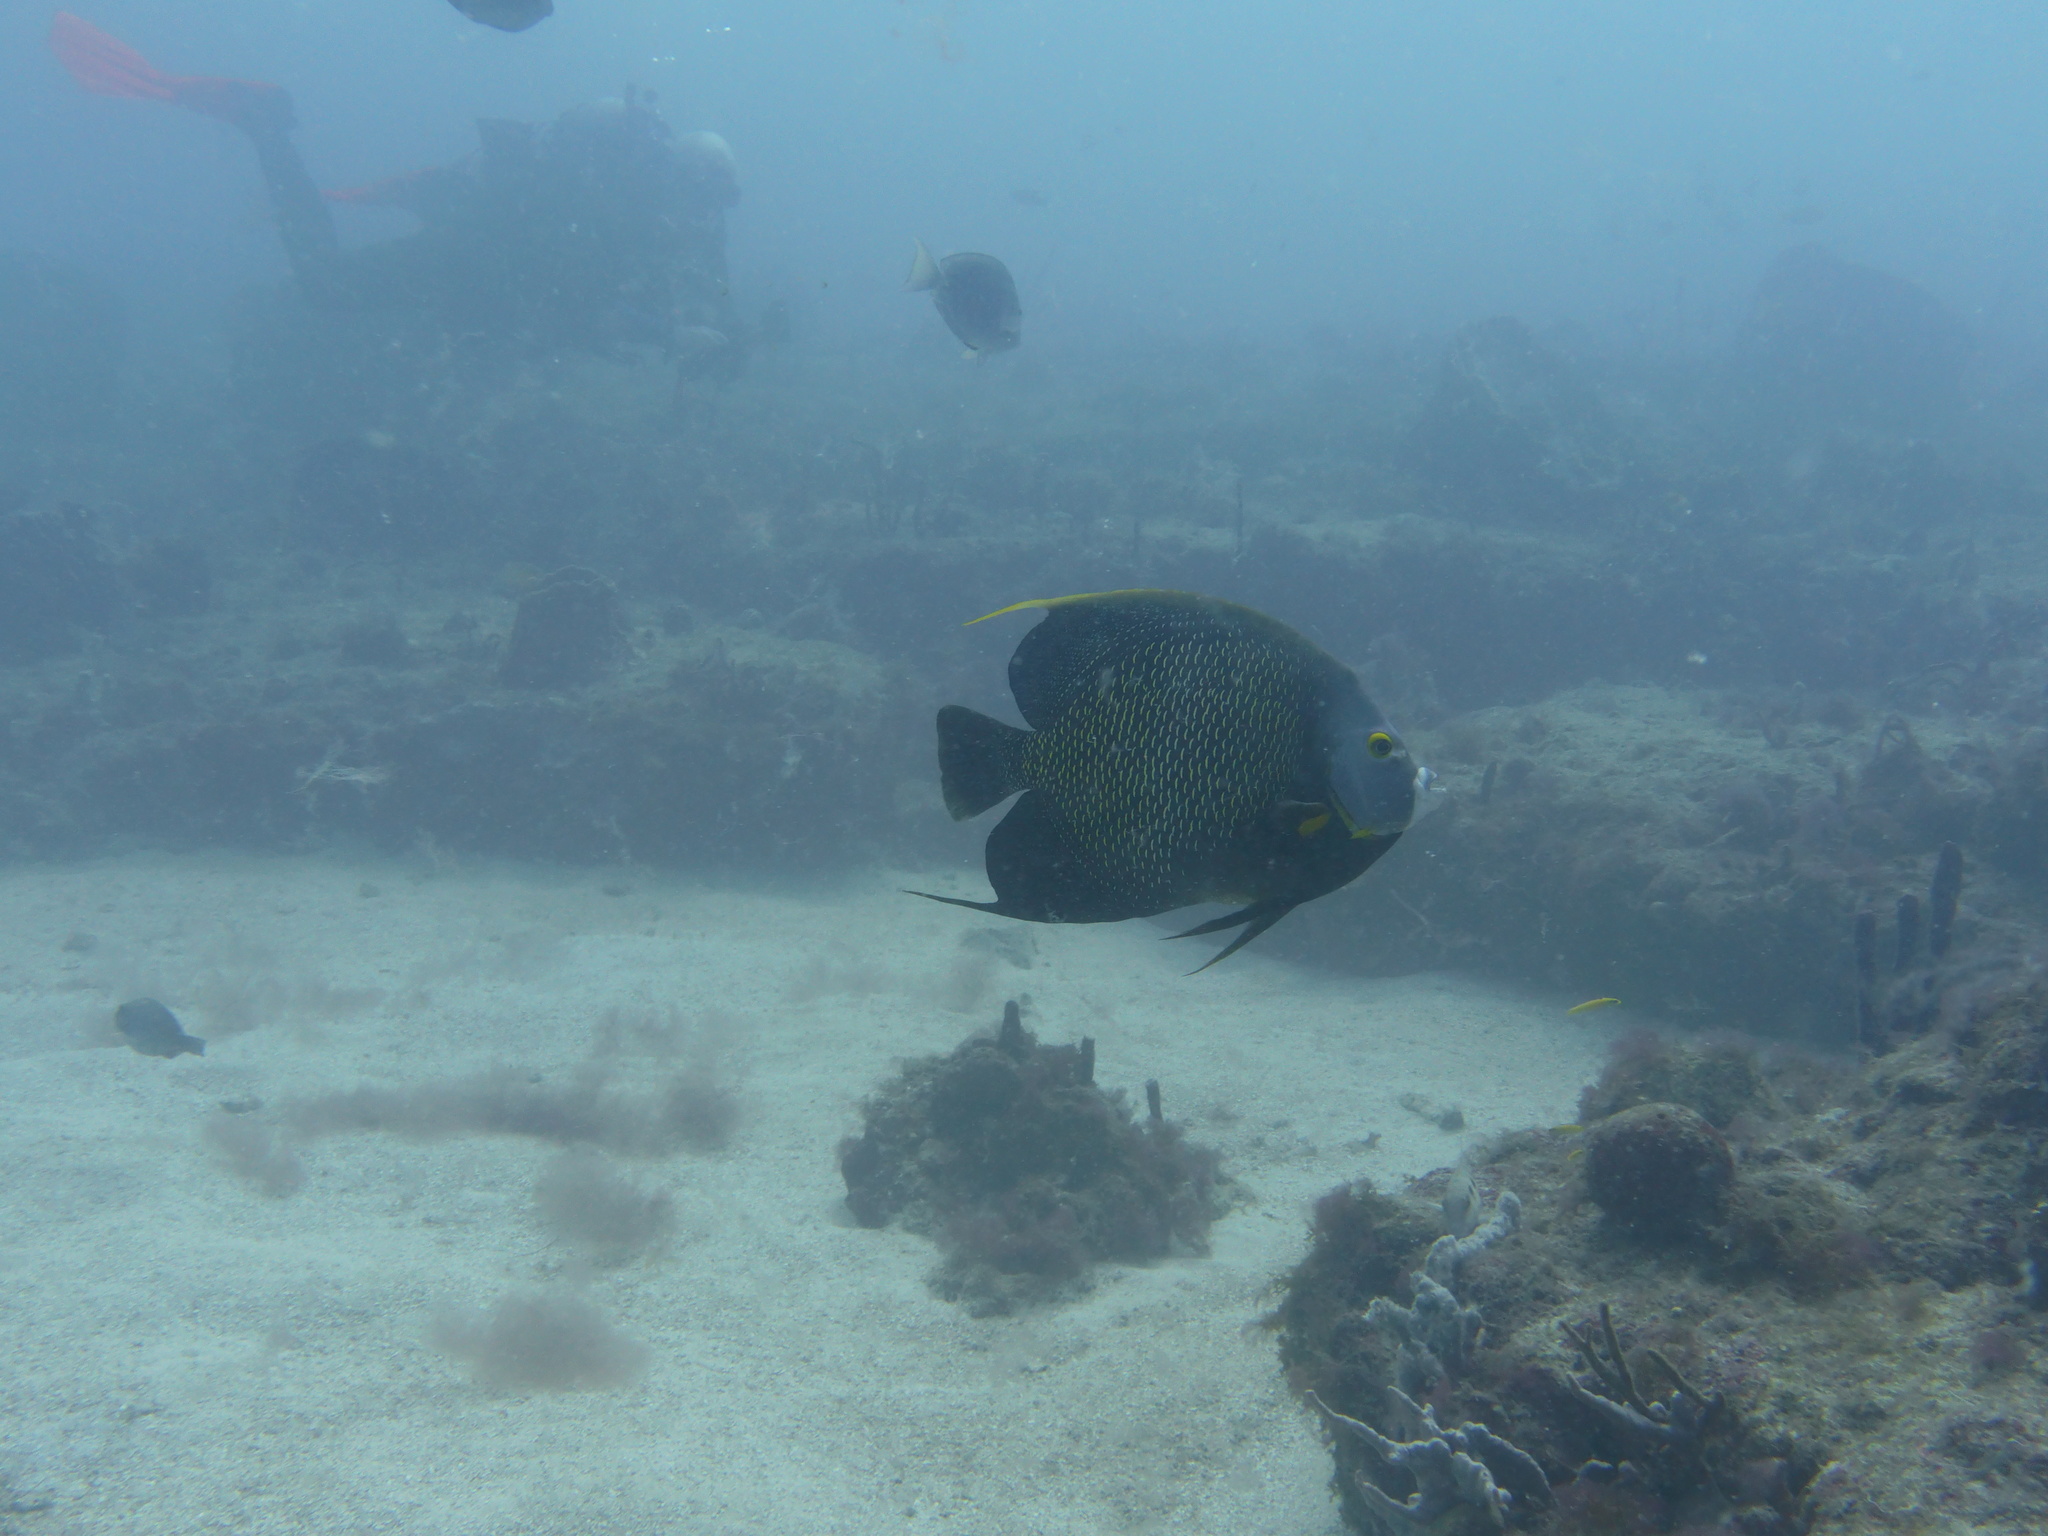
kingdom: Animalia
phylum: Chordata
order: Perciformes
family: Pomacanthidae
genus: Pomacanthus
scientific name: Pomacanthus paru
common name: French angelfish
